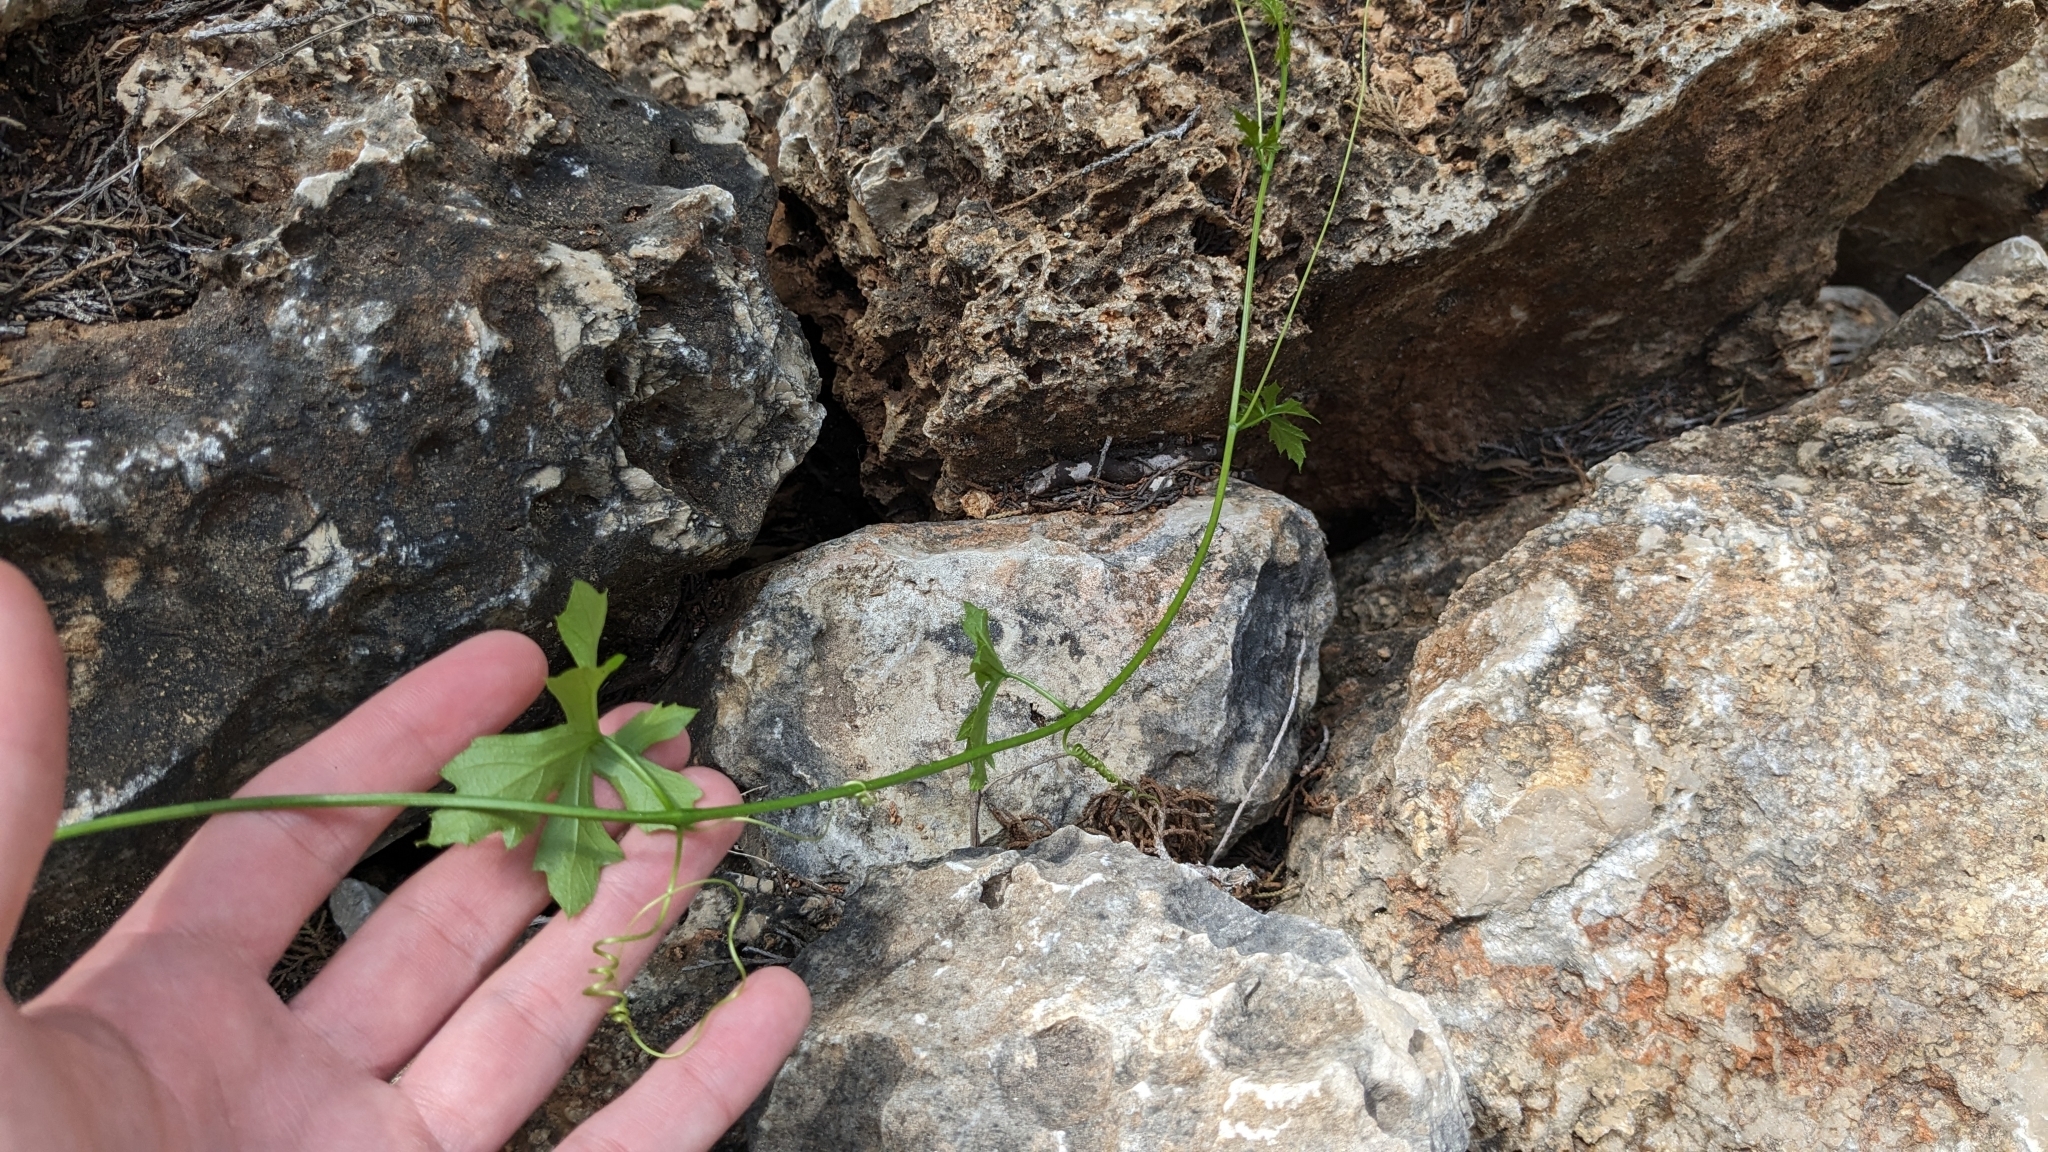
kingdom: Plantae
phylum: Tracheophyta
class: Magnoliopsida
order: Cucurbitales
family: Cucurbitaceae
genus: Ibervillea
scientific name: Ibervillea lindheimeri
